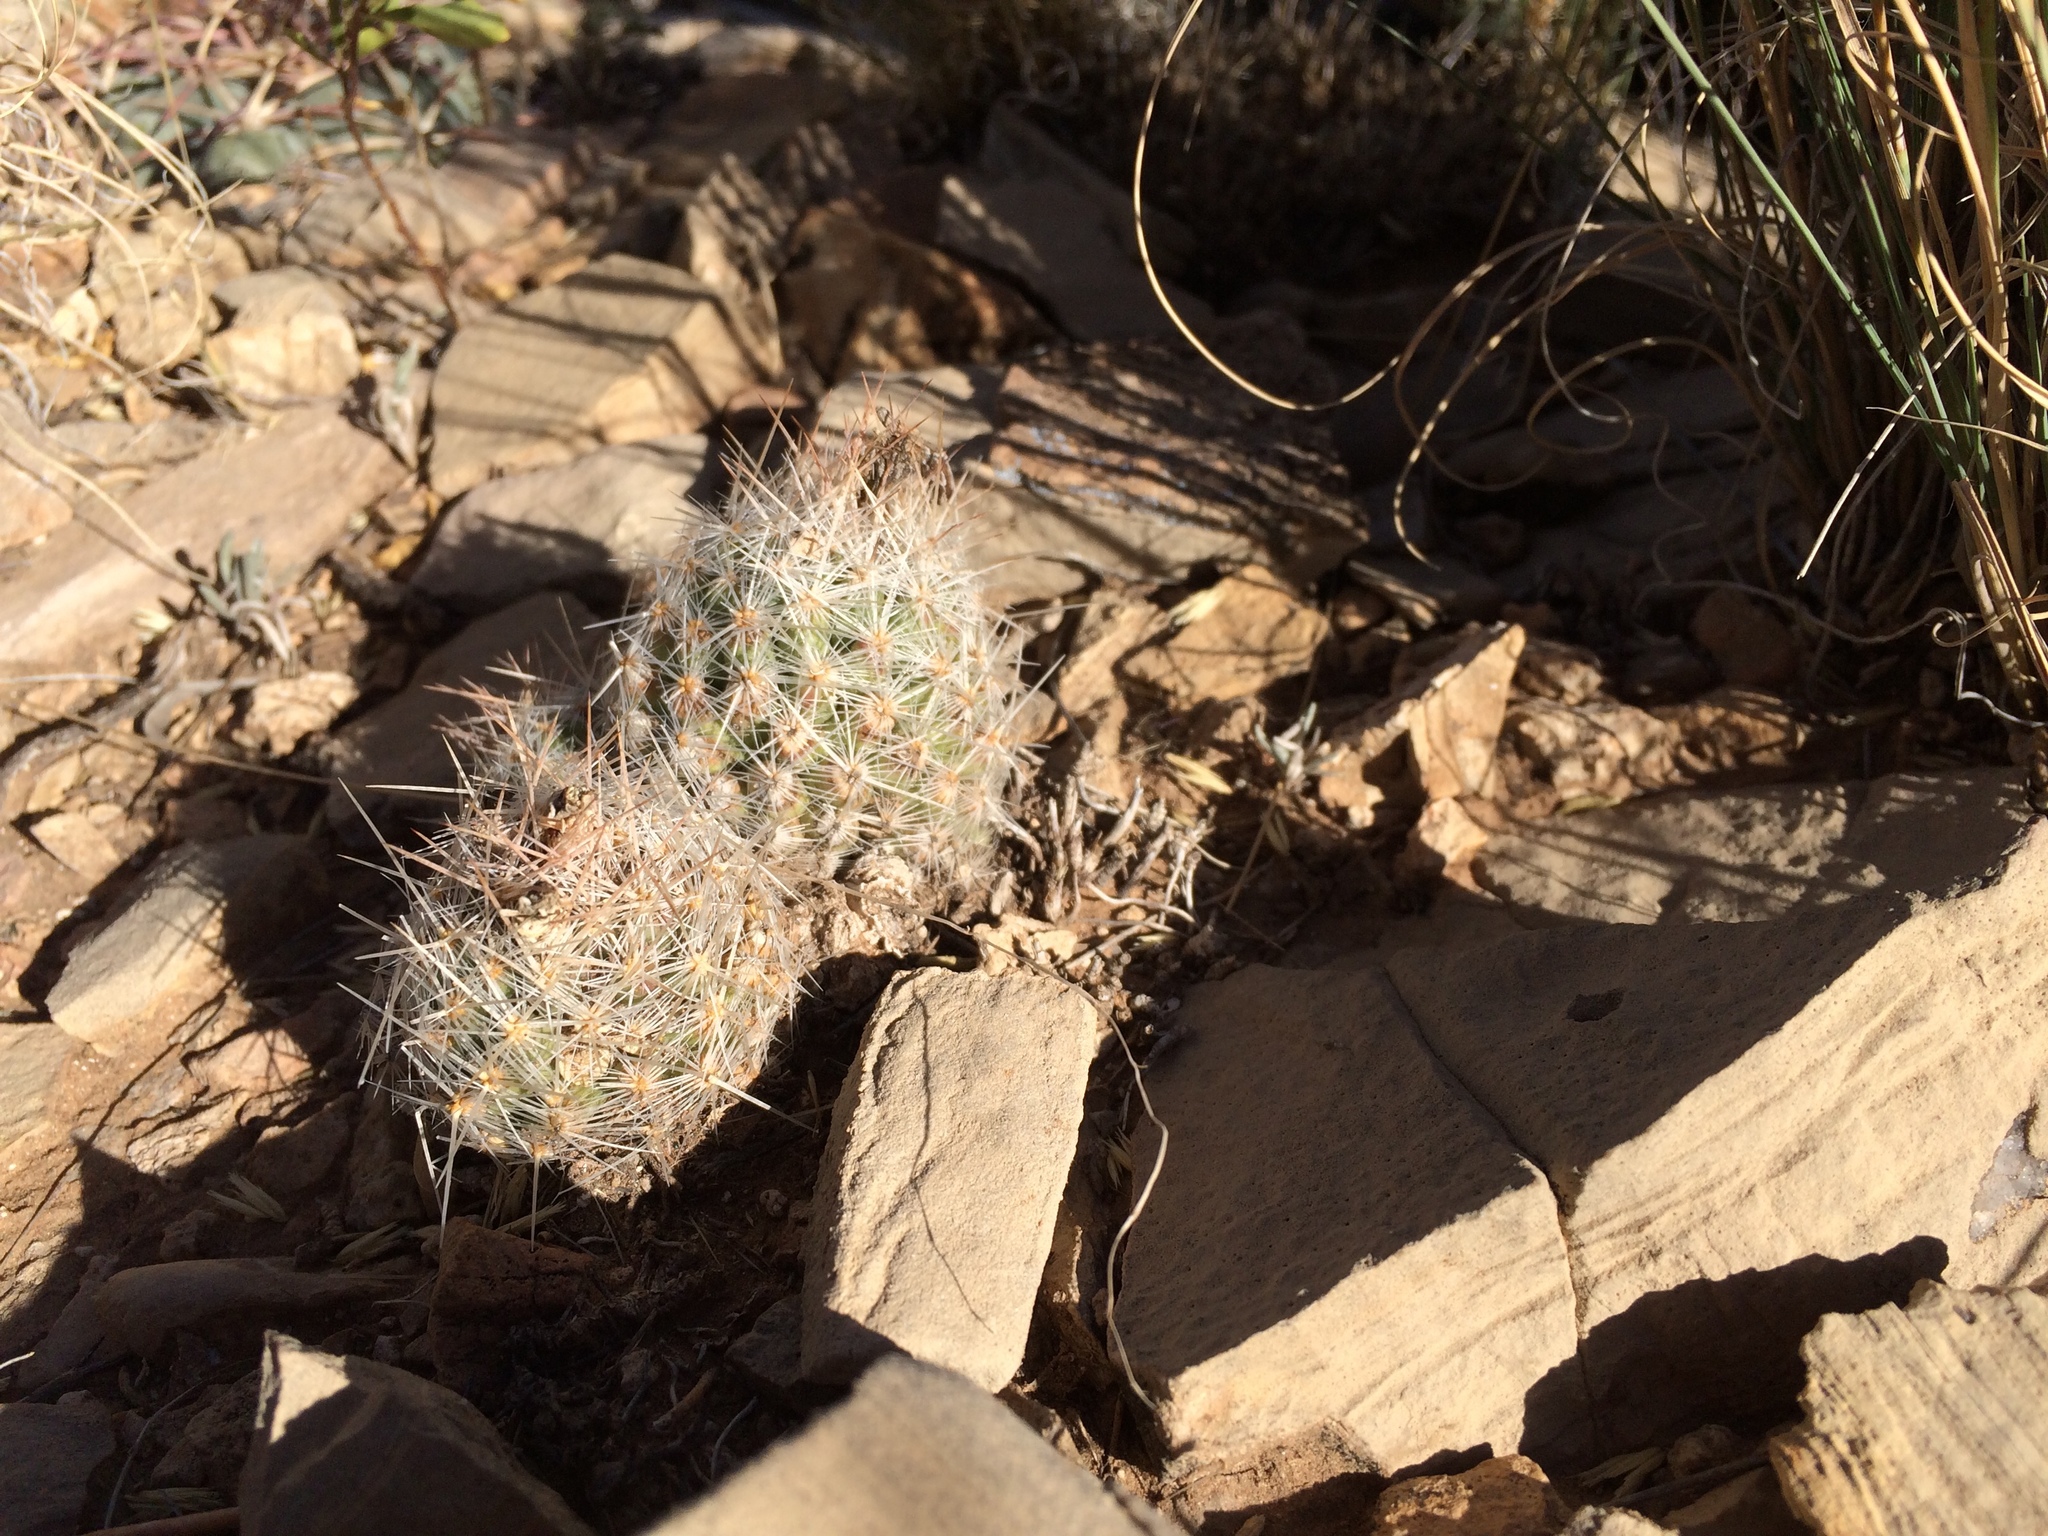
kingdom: Plantae
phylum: Tracheophyta
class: Magnoliopsida
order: Caryophyllales
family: Cactaceae
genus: Pelecyphora
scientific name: Pelecyphora tuberculosa
